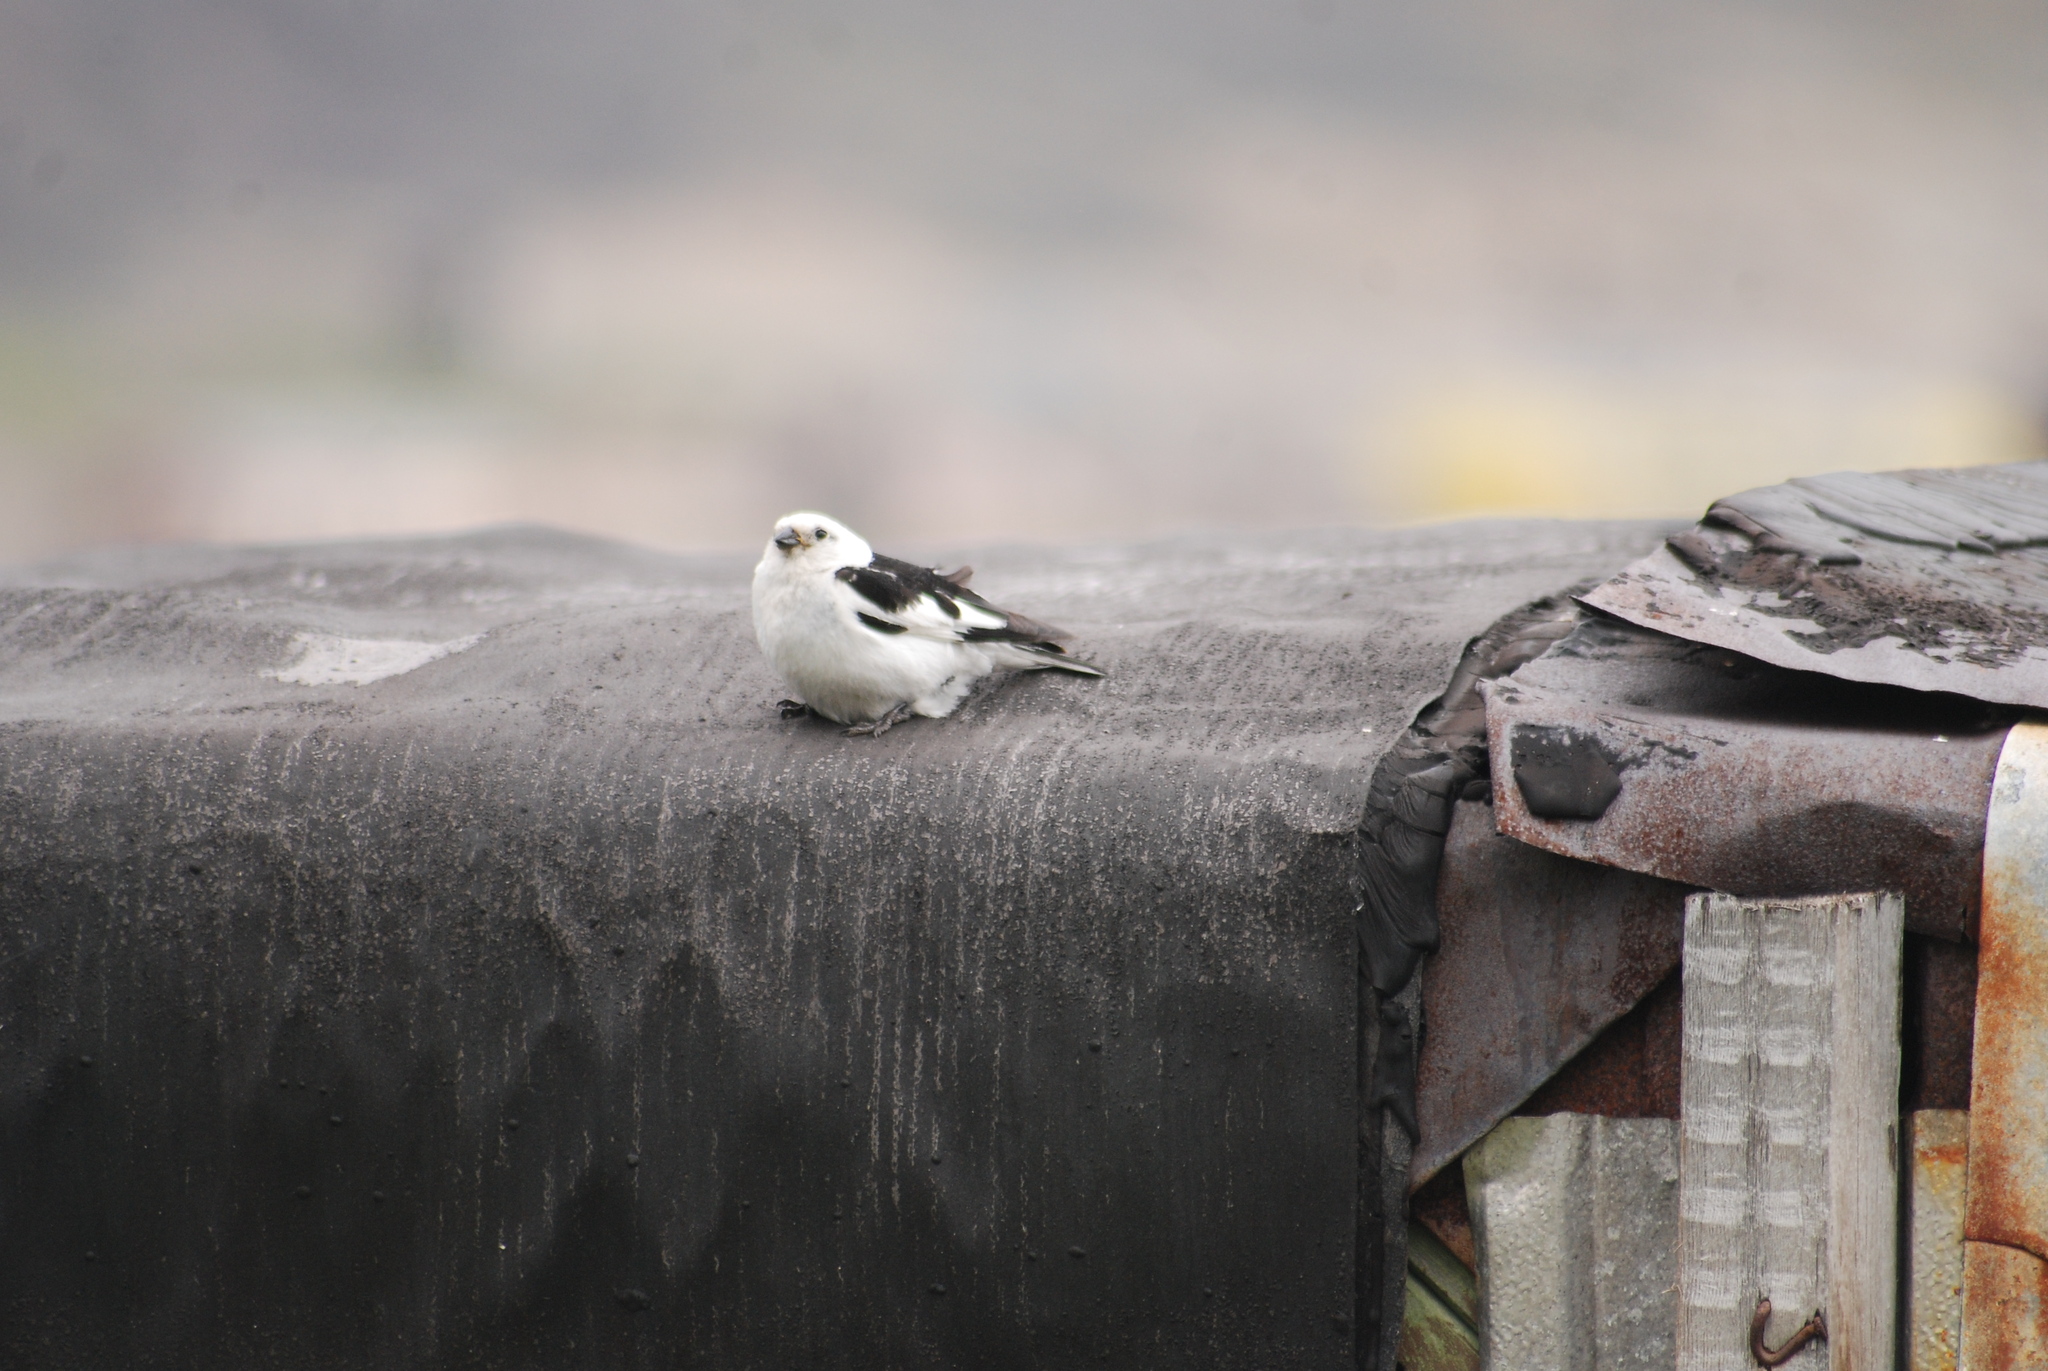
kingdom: Animalia
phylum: Chordata
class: Aves
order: Passeriformes
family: Calcariidae
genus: Plectrophenax
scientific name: Plectrophenax nivalis
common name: Snow bunting
